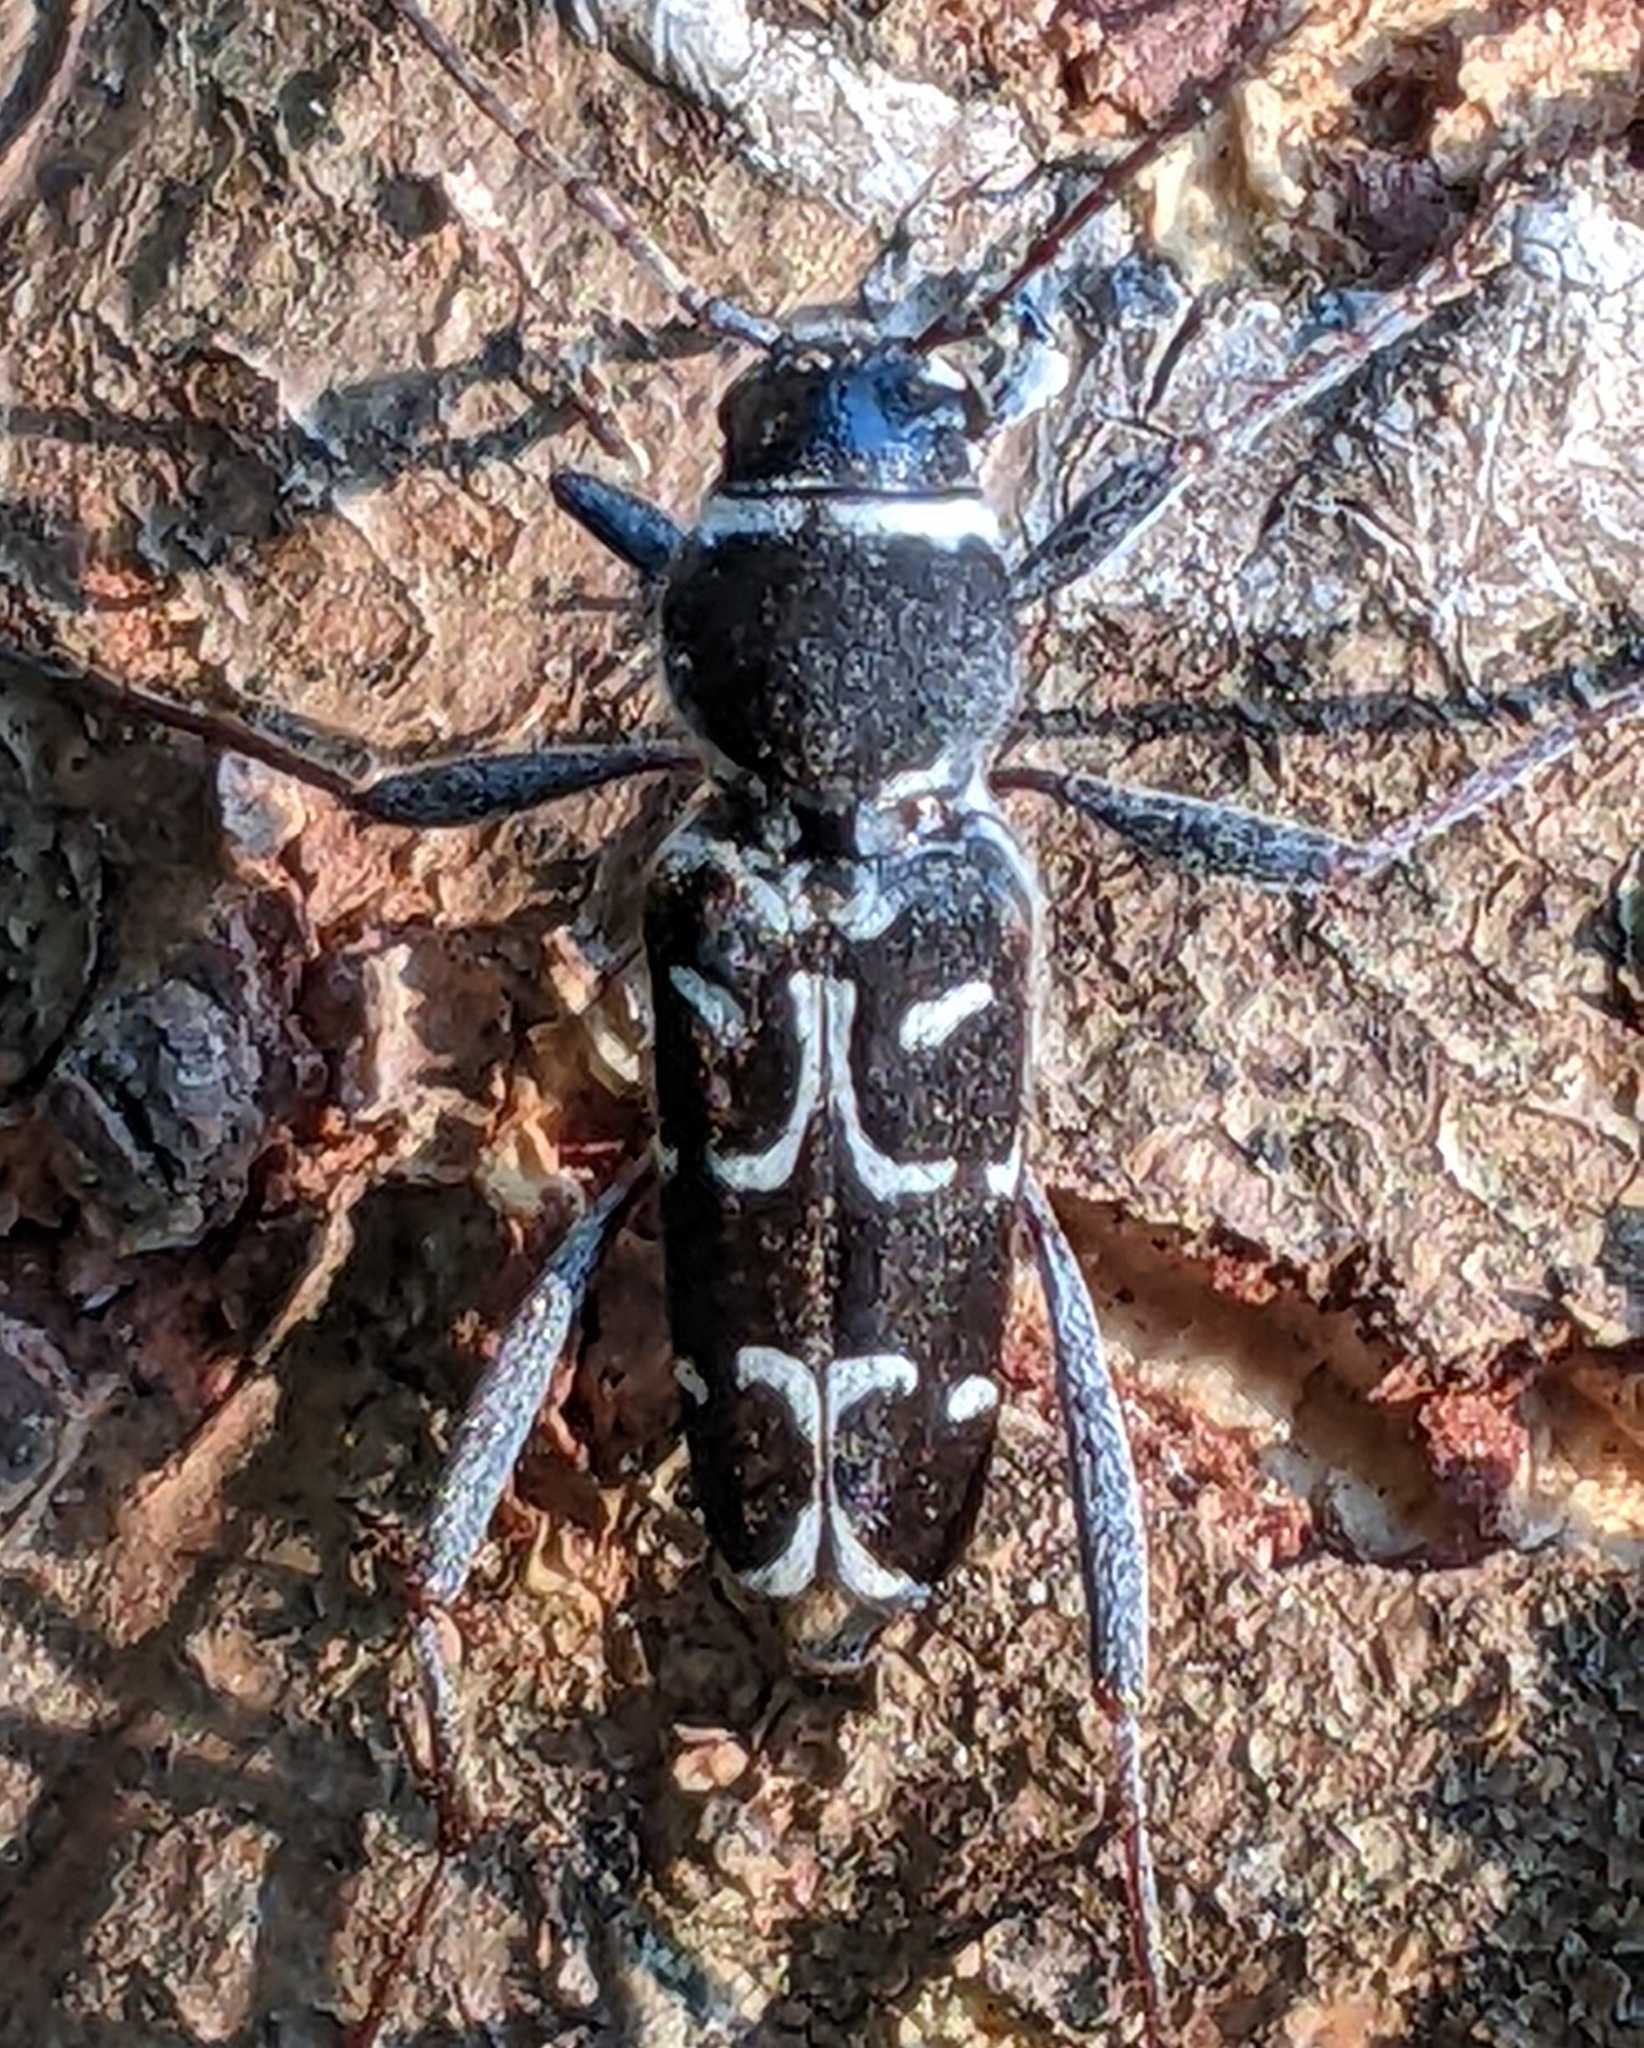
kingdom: Animalia
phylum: Arthropoda
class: Insecta
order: Coleoptera
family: Cerambycidae
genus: Xylotrechus
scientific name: Xylotrechus undulatus
